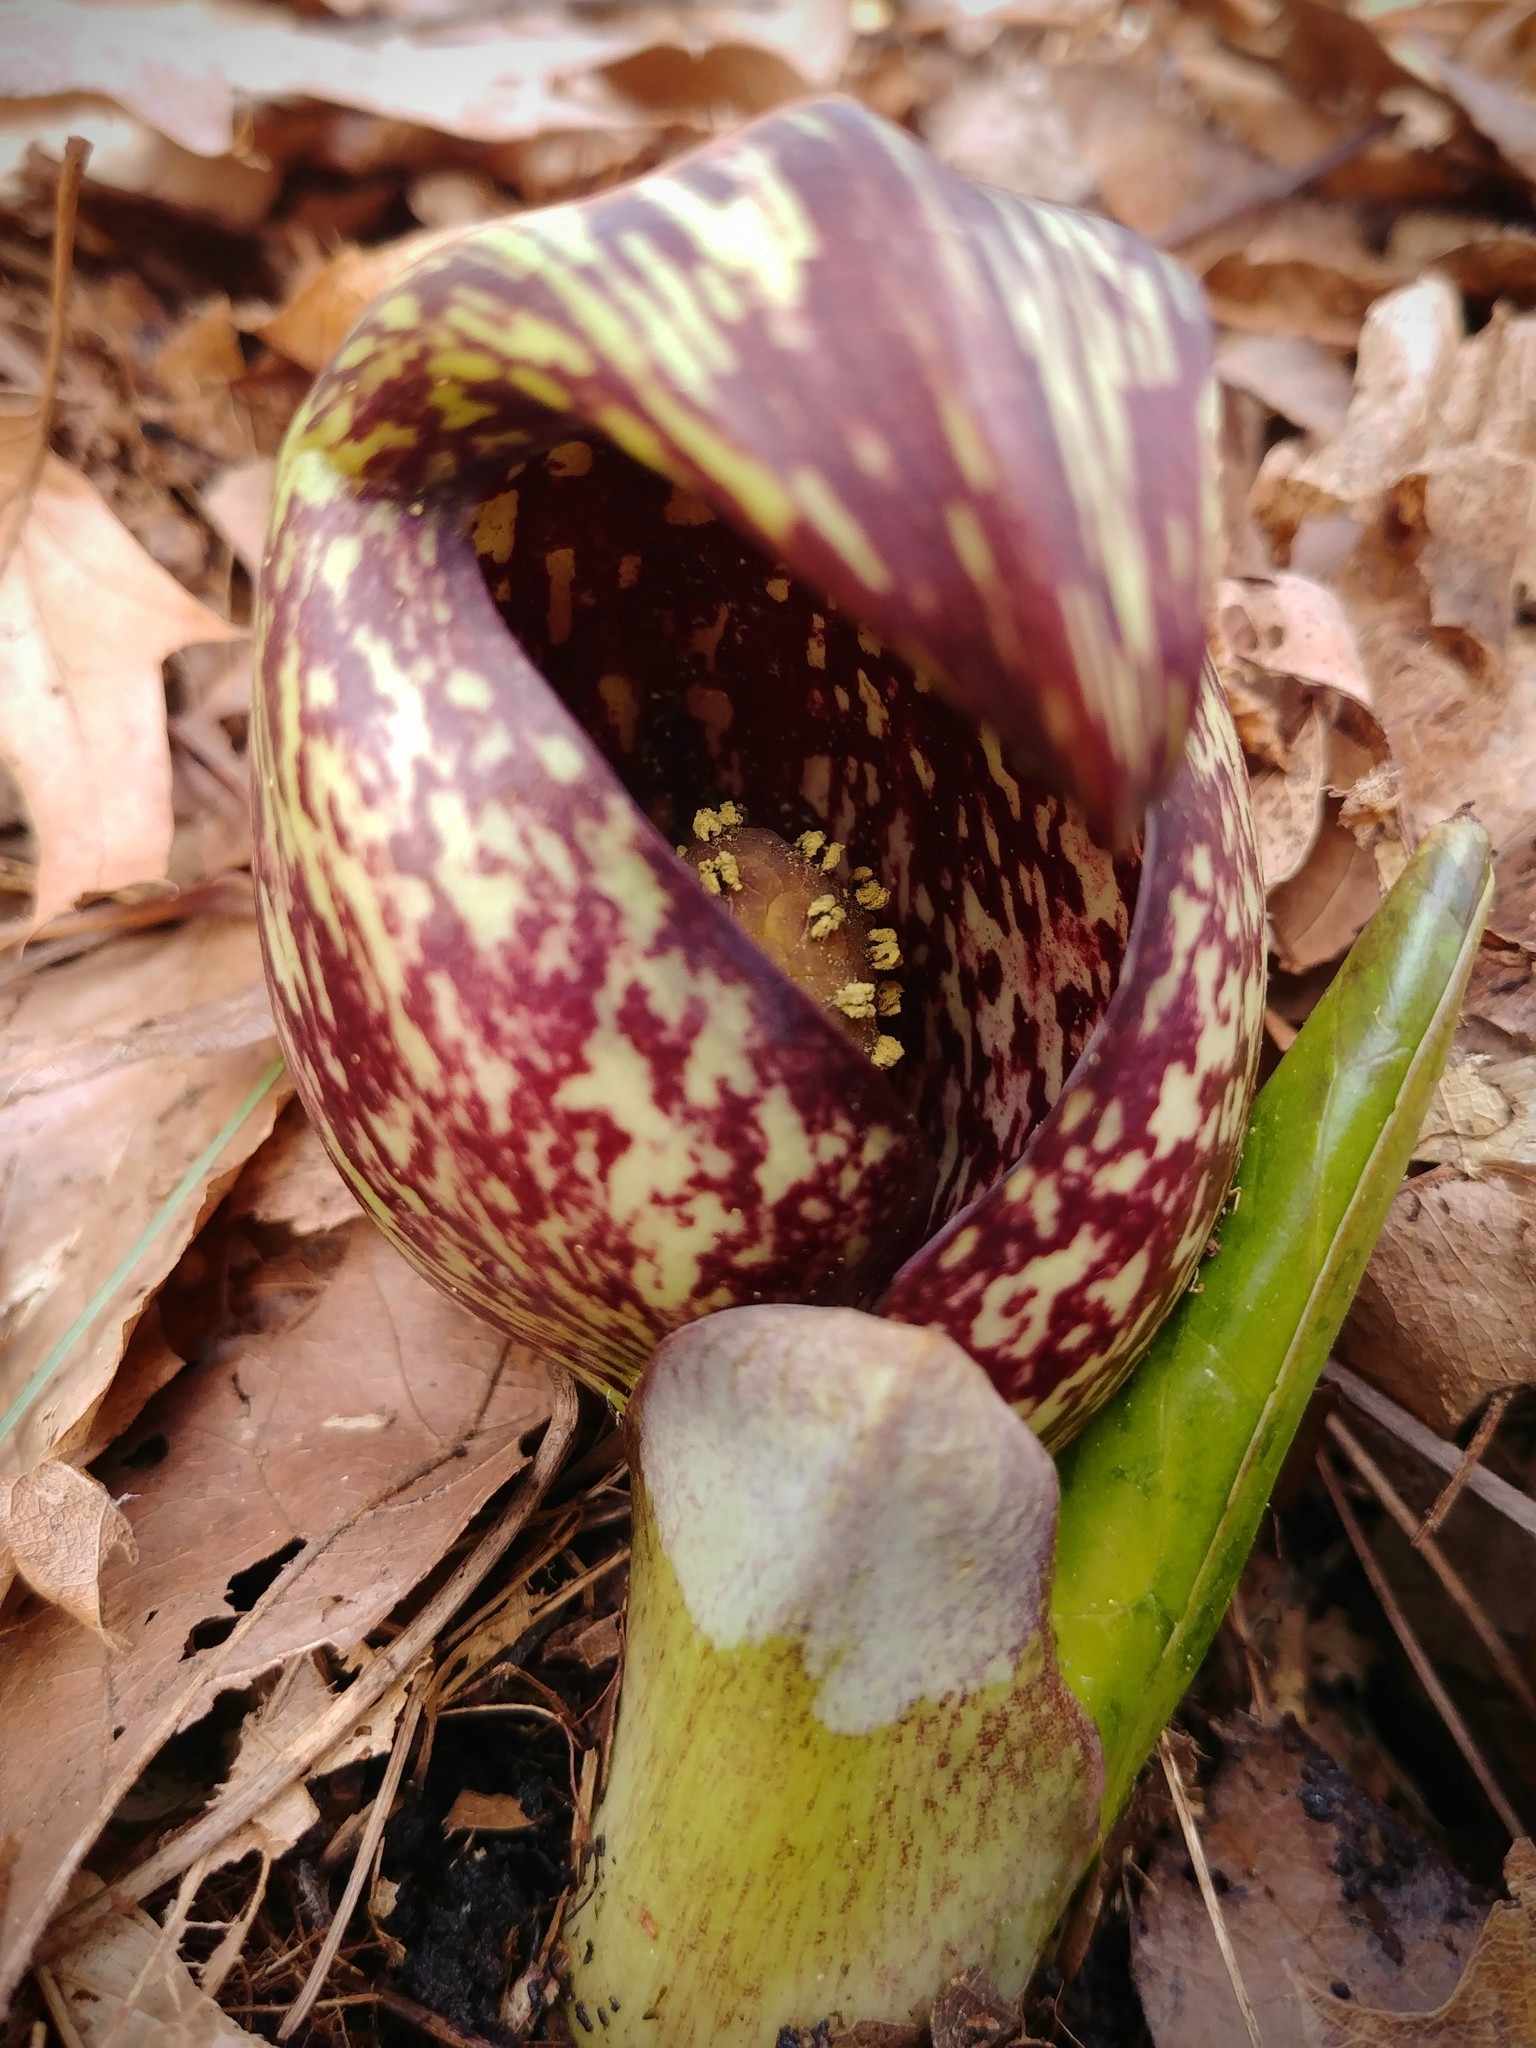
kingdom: Plantae
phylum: Tracheophyta
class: Liliopsida
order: Alismatales
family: Araceae
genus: Symplocarpus
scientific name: Symplocarpus foetidus
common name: Eastern skunk cabbage
